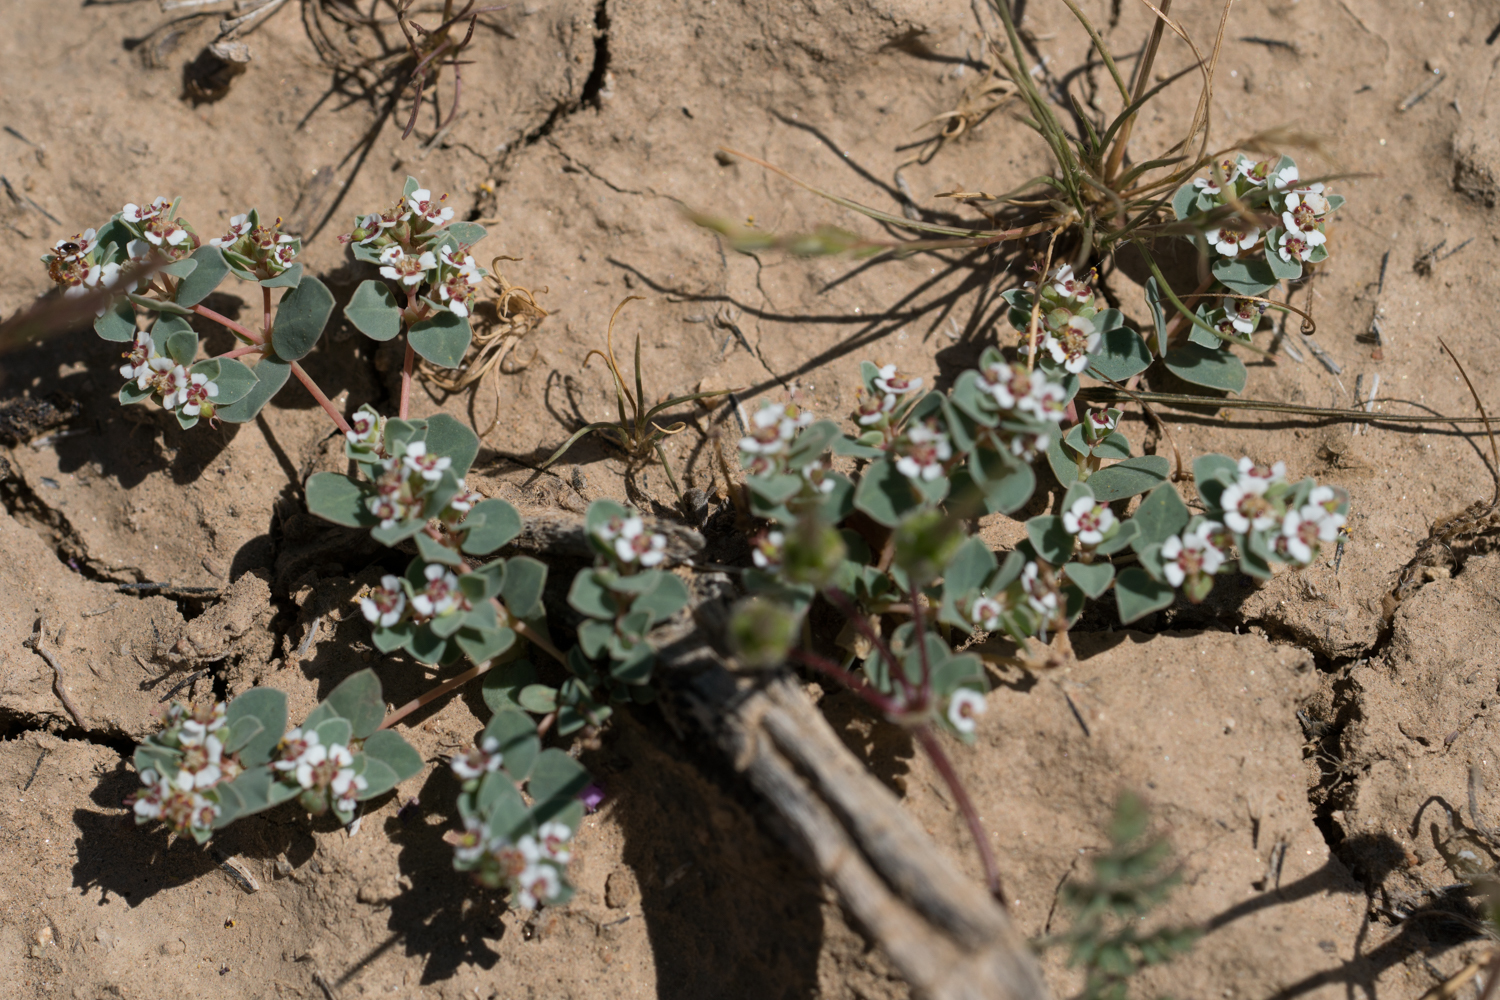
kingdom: Plantae
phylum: Tracheophyta
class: Magnoliopsida
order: Malpighiales
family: Euphorbiaceae
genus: Euphorbia
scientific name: Euphorbia albomarginata
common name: Whitemargin sandmat
